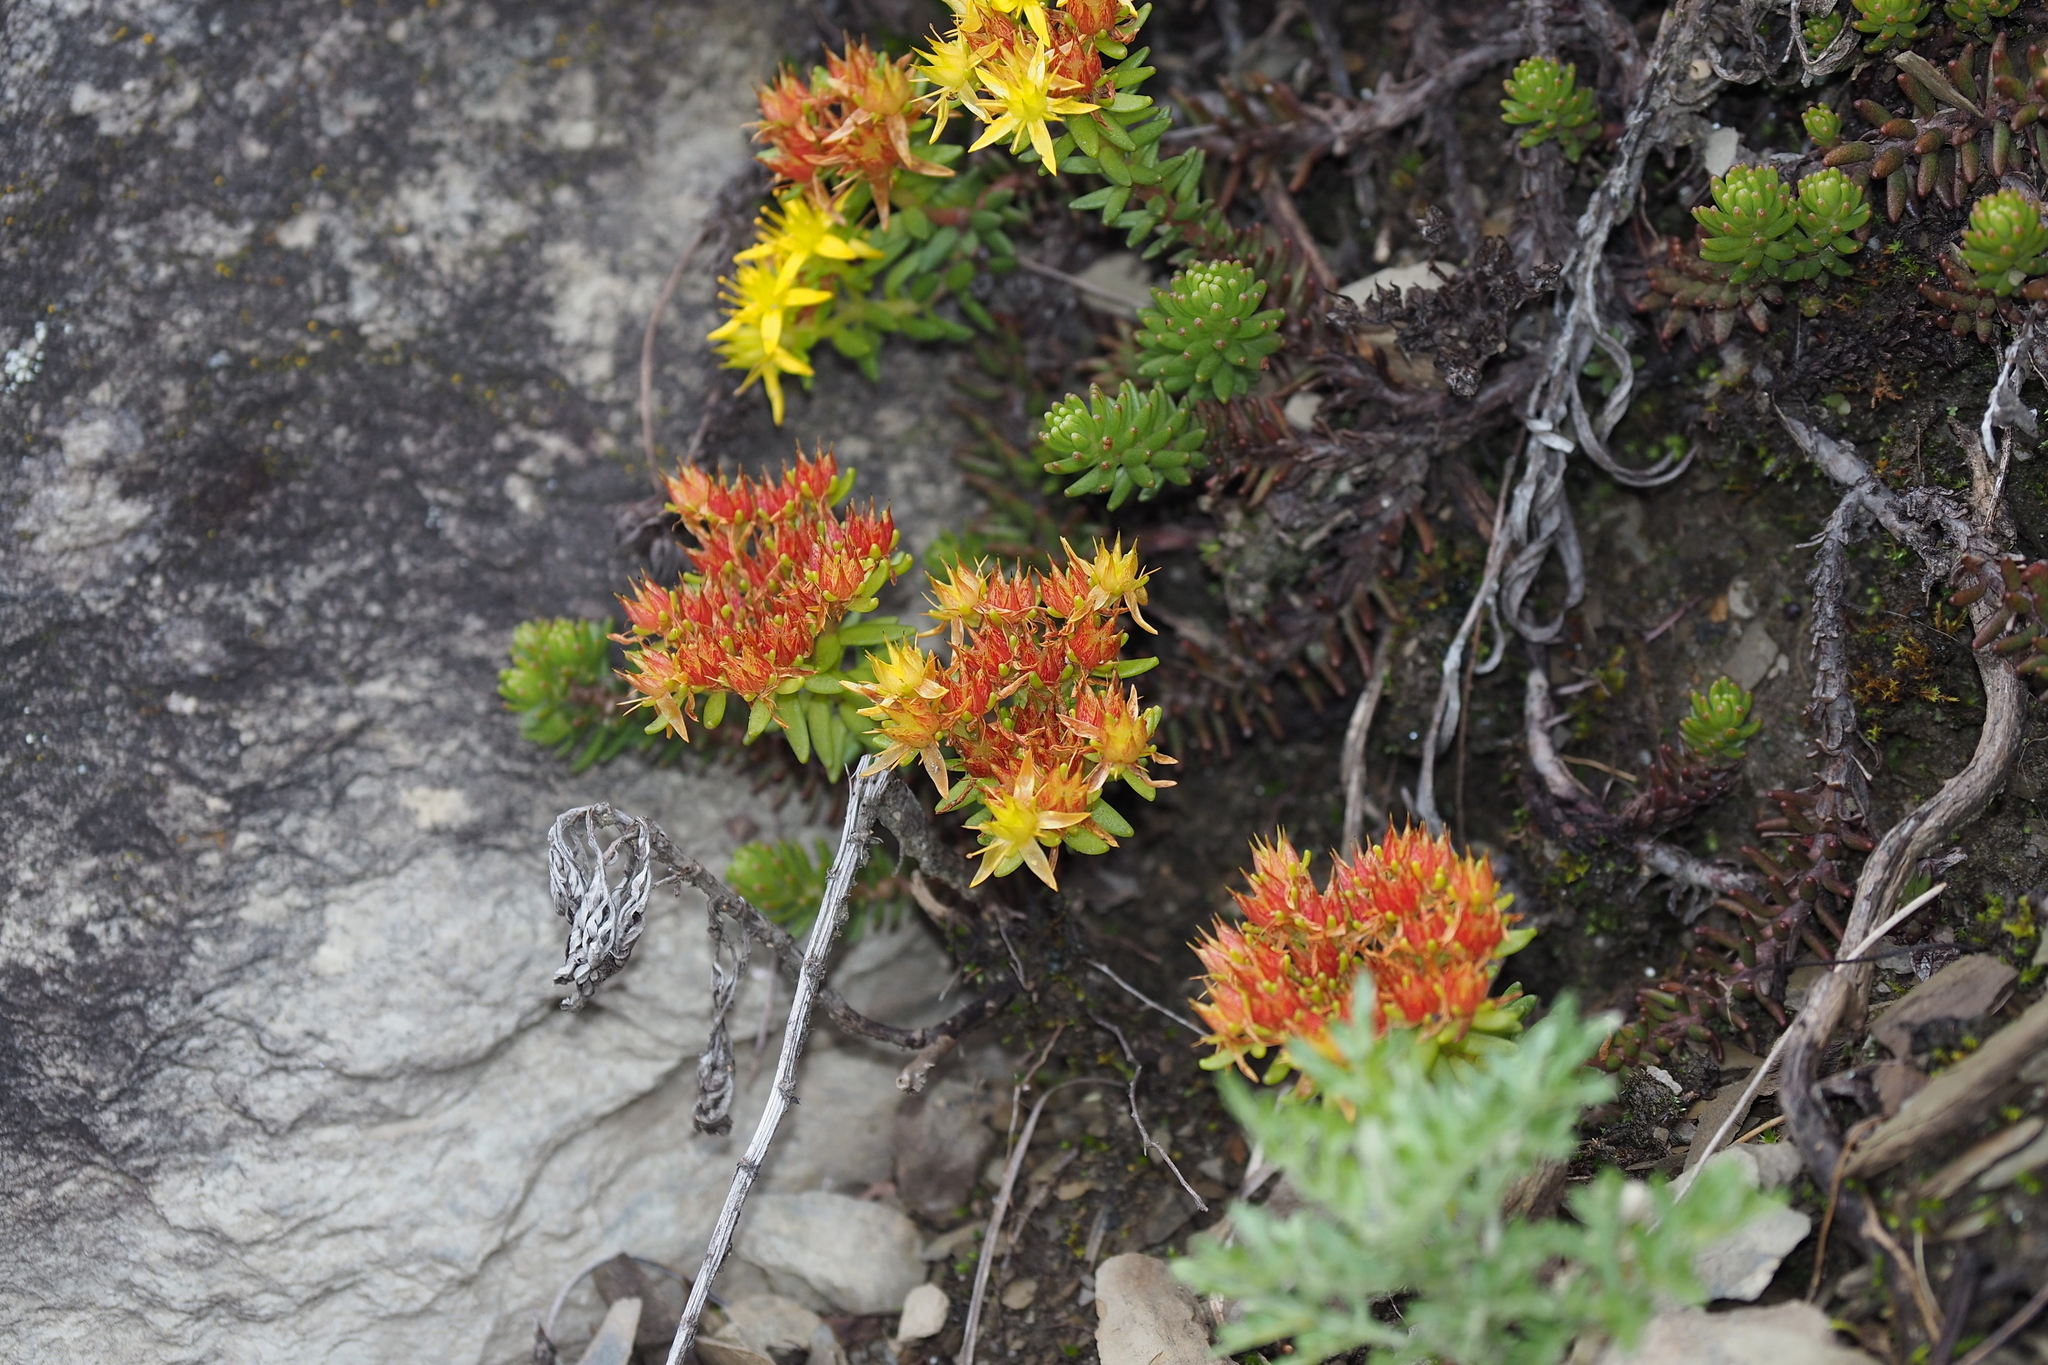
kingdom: Plantae
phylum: Tracheophyta
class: Magnoliopsida
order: Saxifragales
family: Crassulaceae
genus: Sedum
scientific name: Sedum morrisonense
